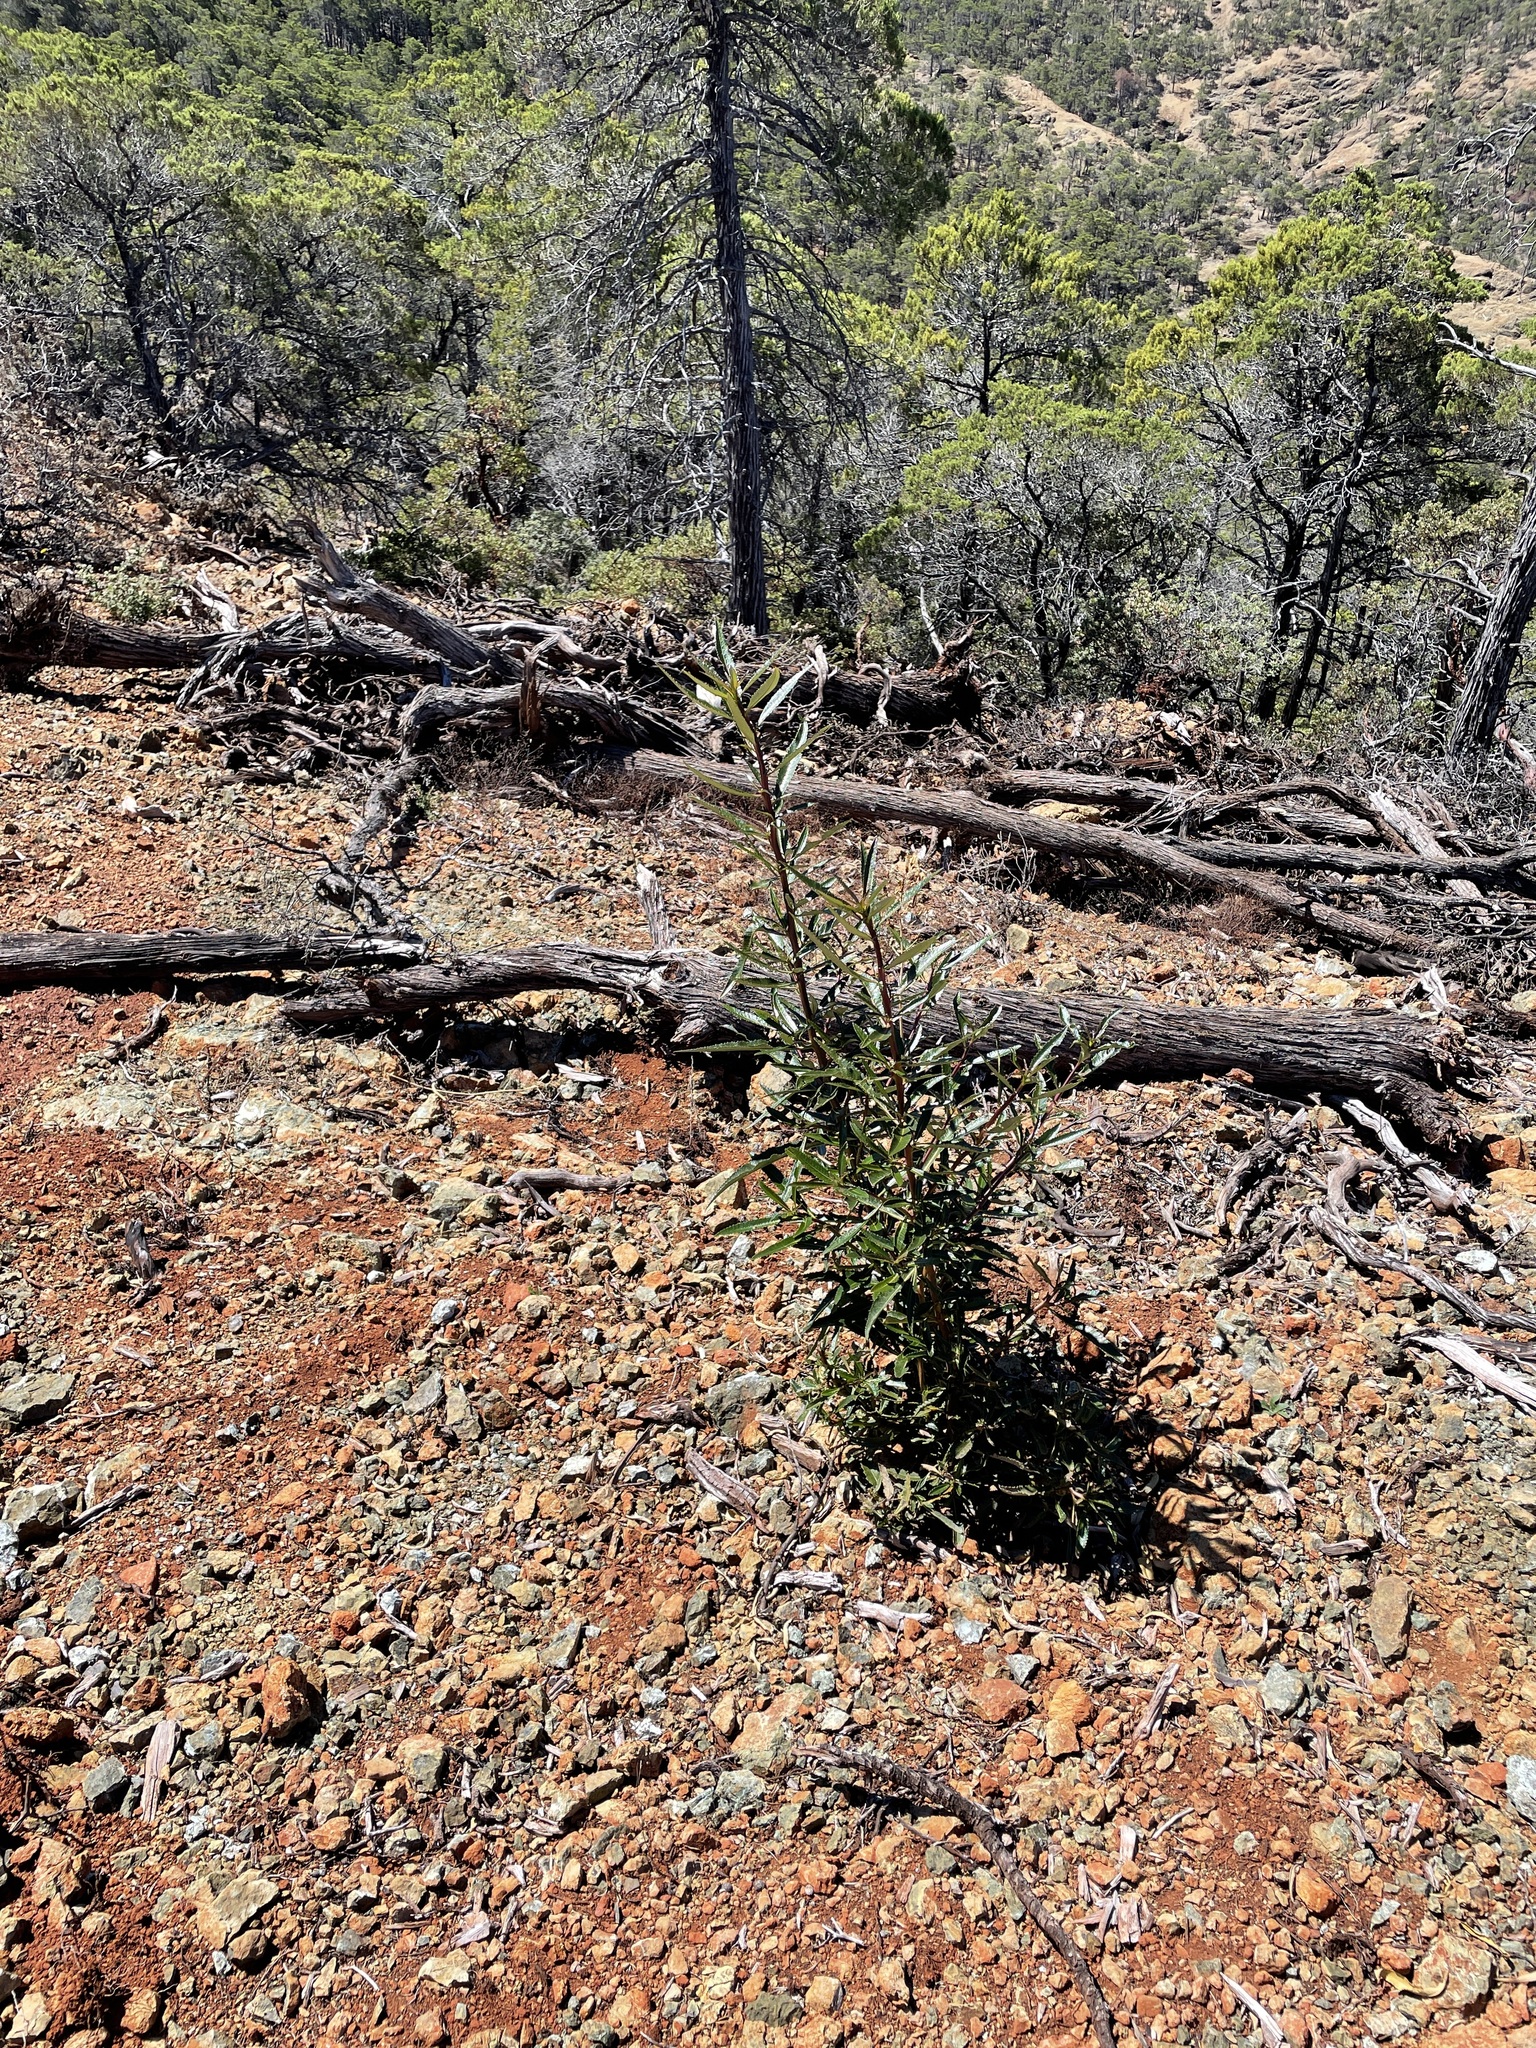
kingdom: Plantae
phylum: Tracheophyta
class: Magnoliopsida
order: Boraginales
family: Namaceae
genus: Eriodictyon
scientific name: Eriodictyon californicum
